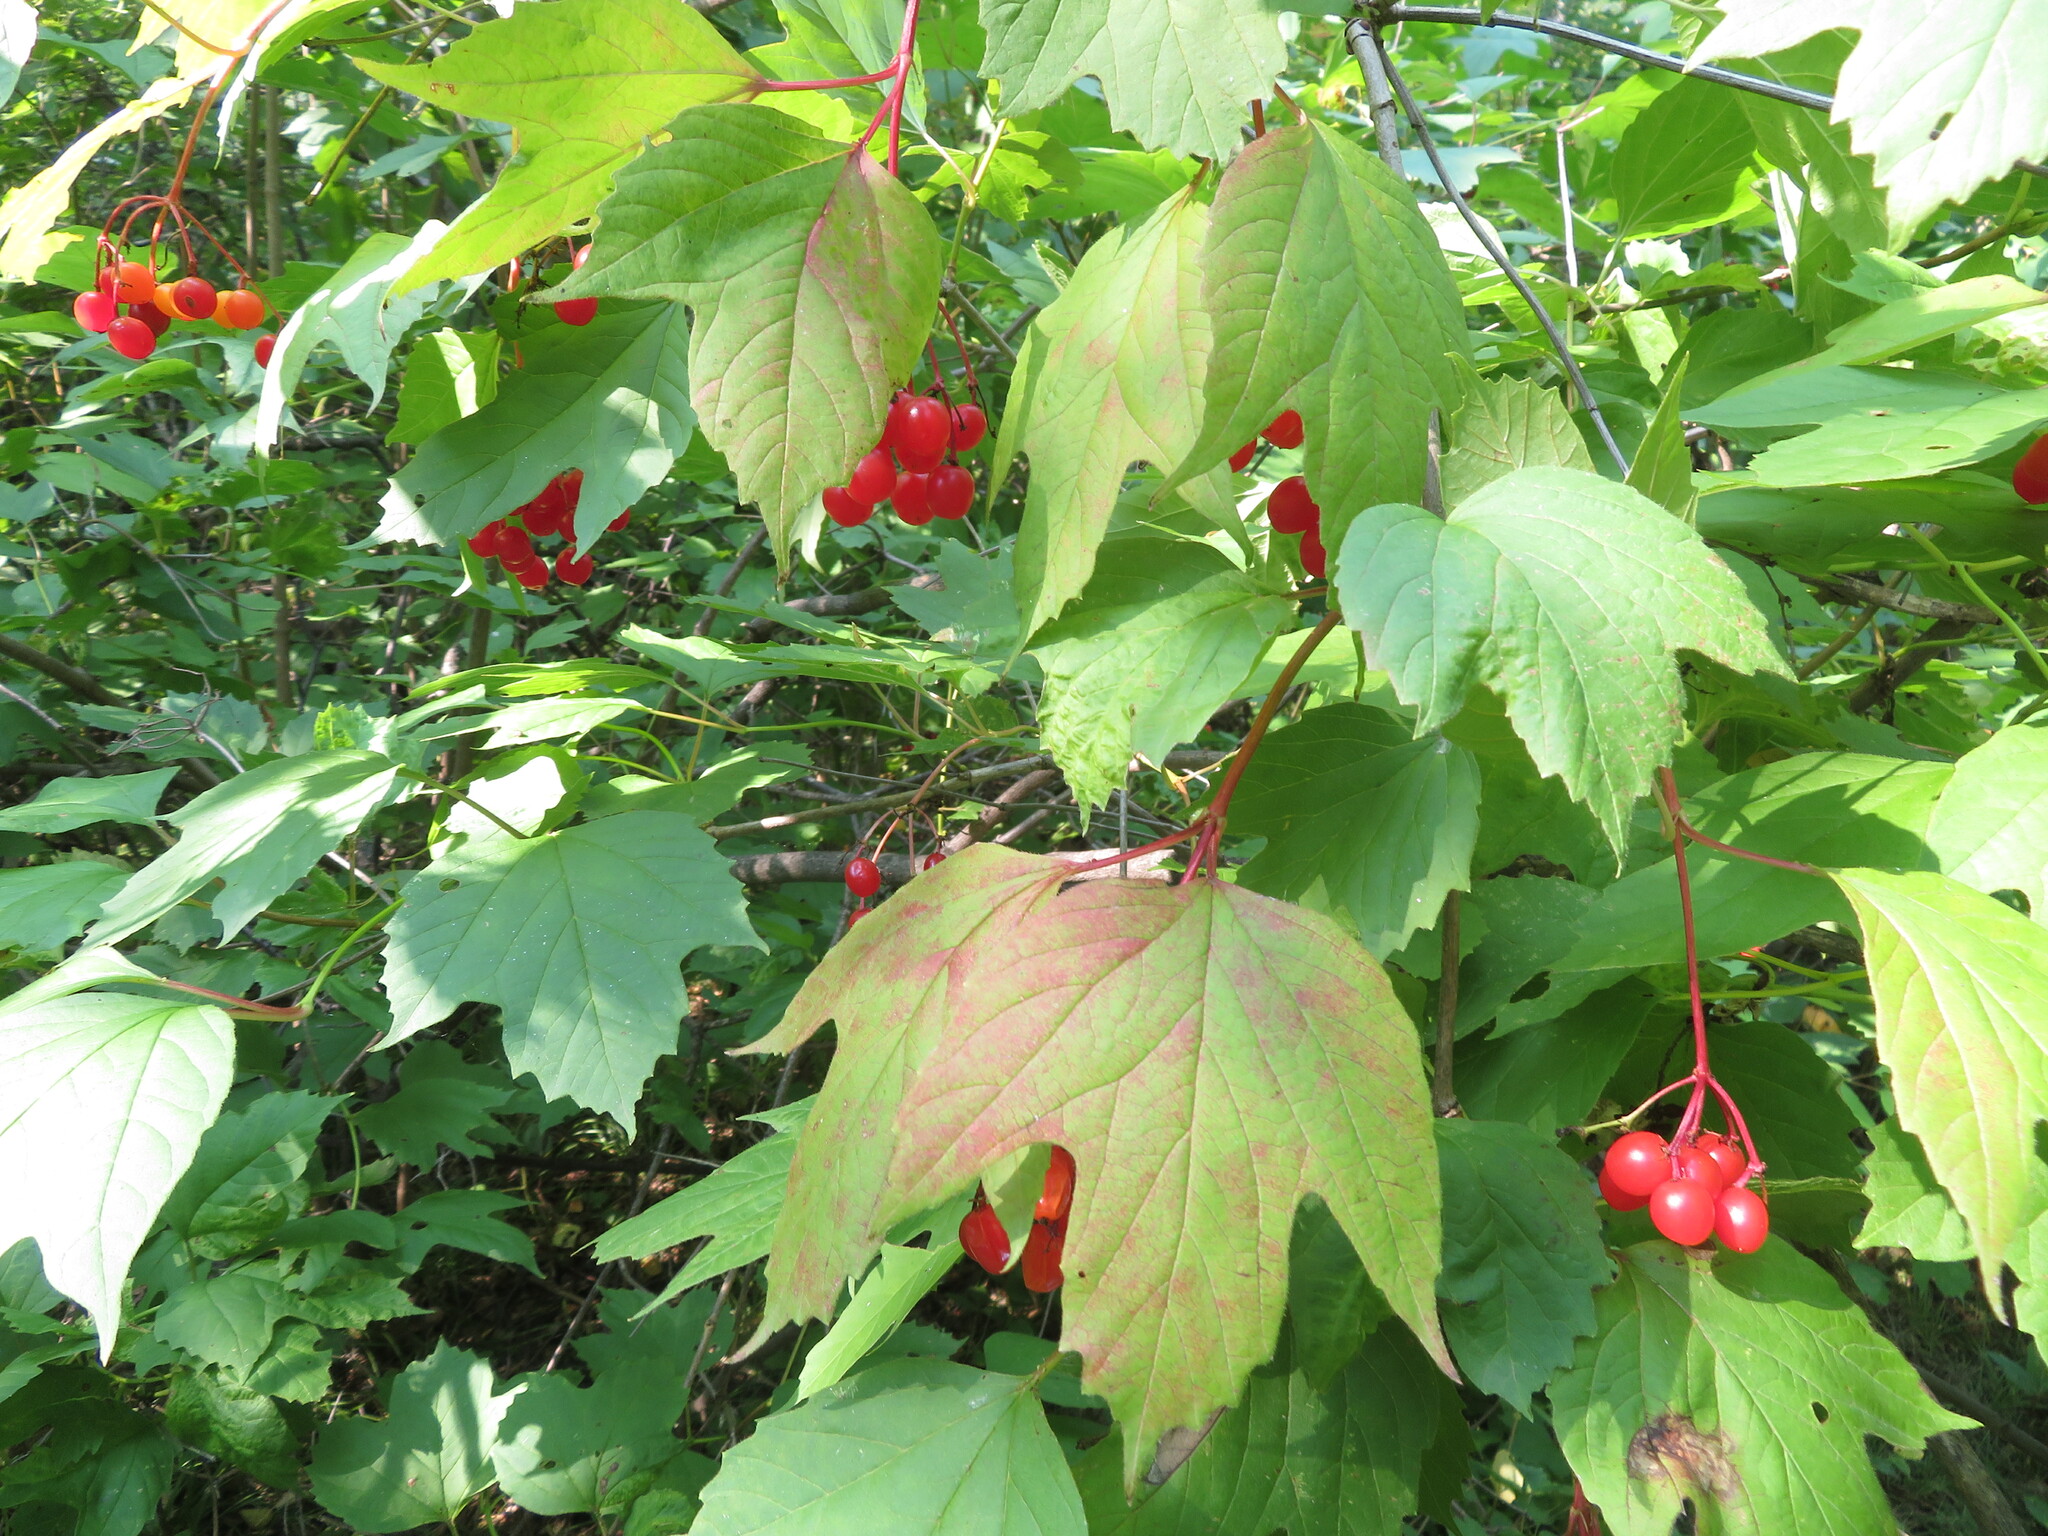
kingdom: Plantae
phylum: Tracheophyta
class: Magnoliopsida
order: Dipsacales
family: Viburnaceae
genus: Viburnum
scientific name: Viburnum opulus
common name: Guelder-rose
